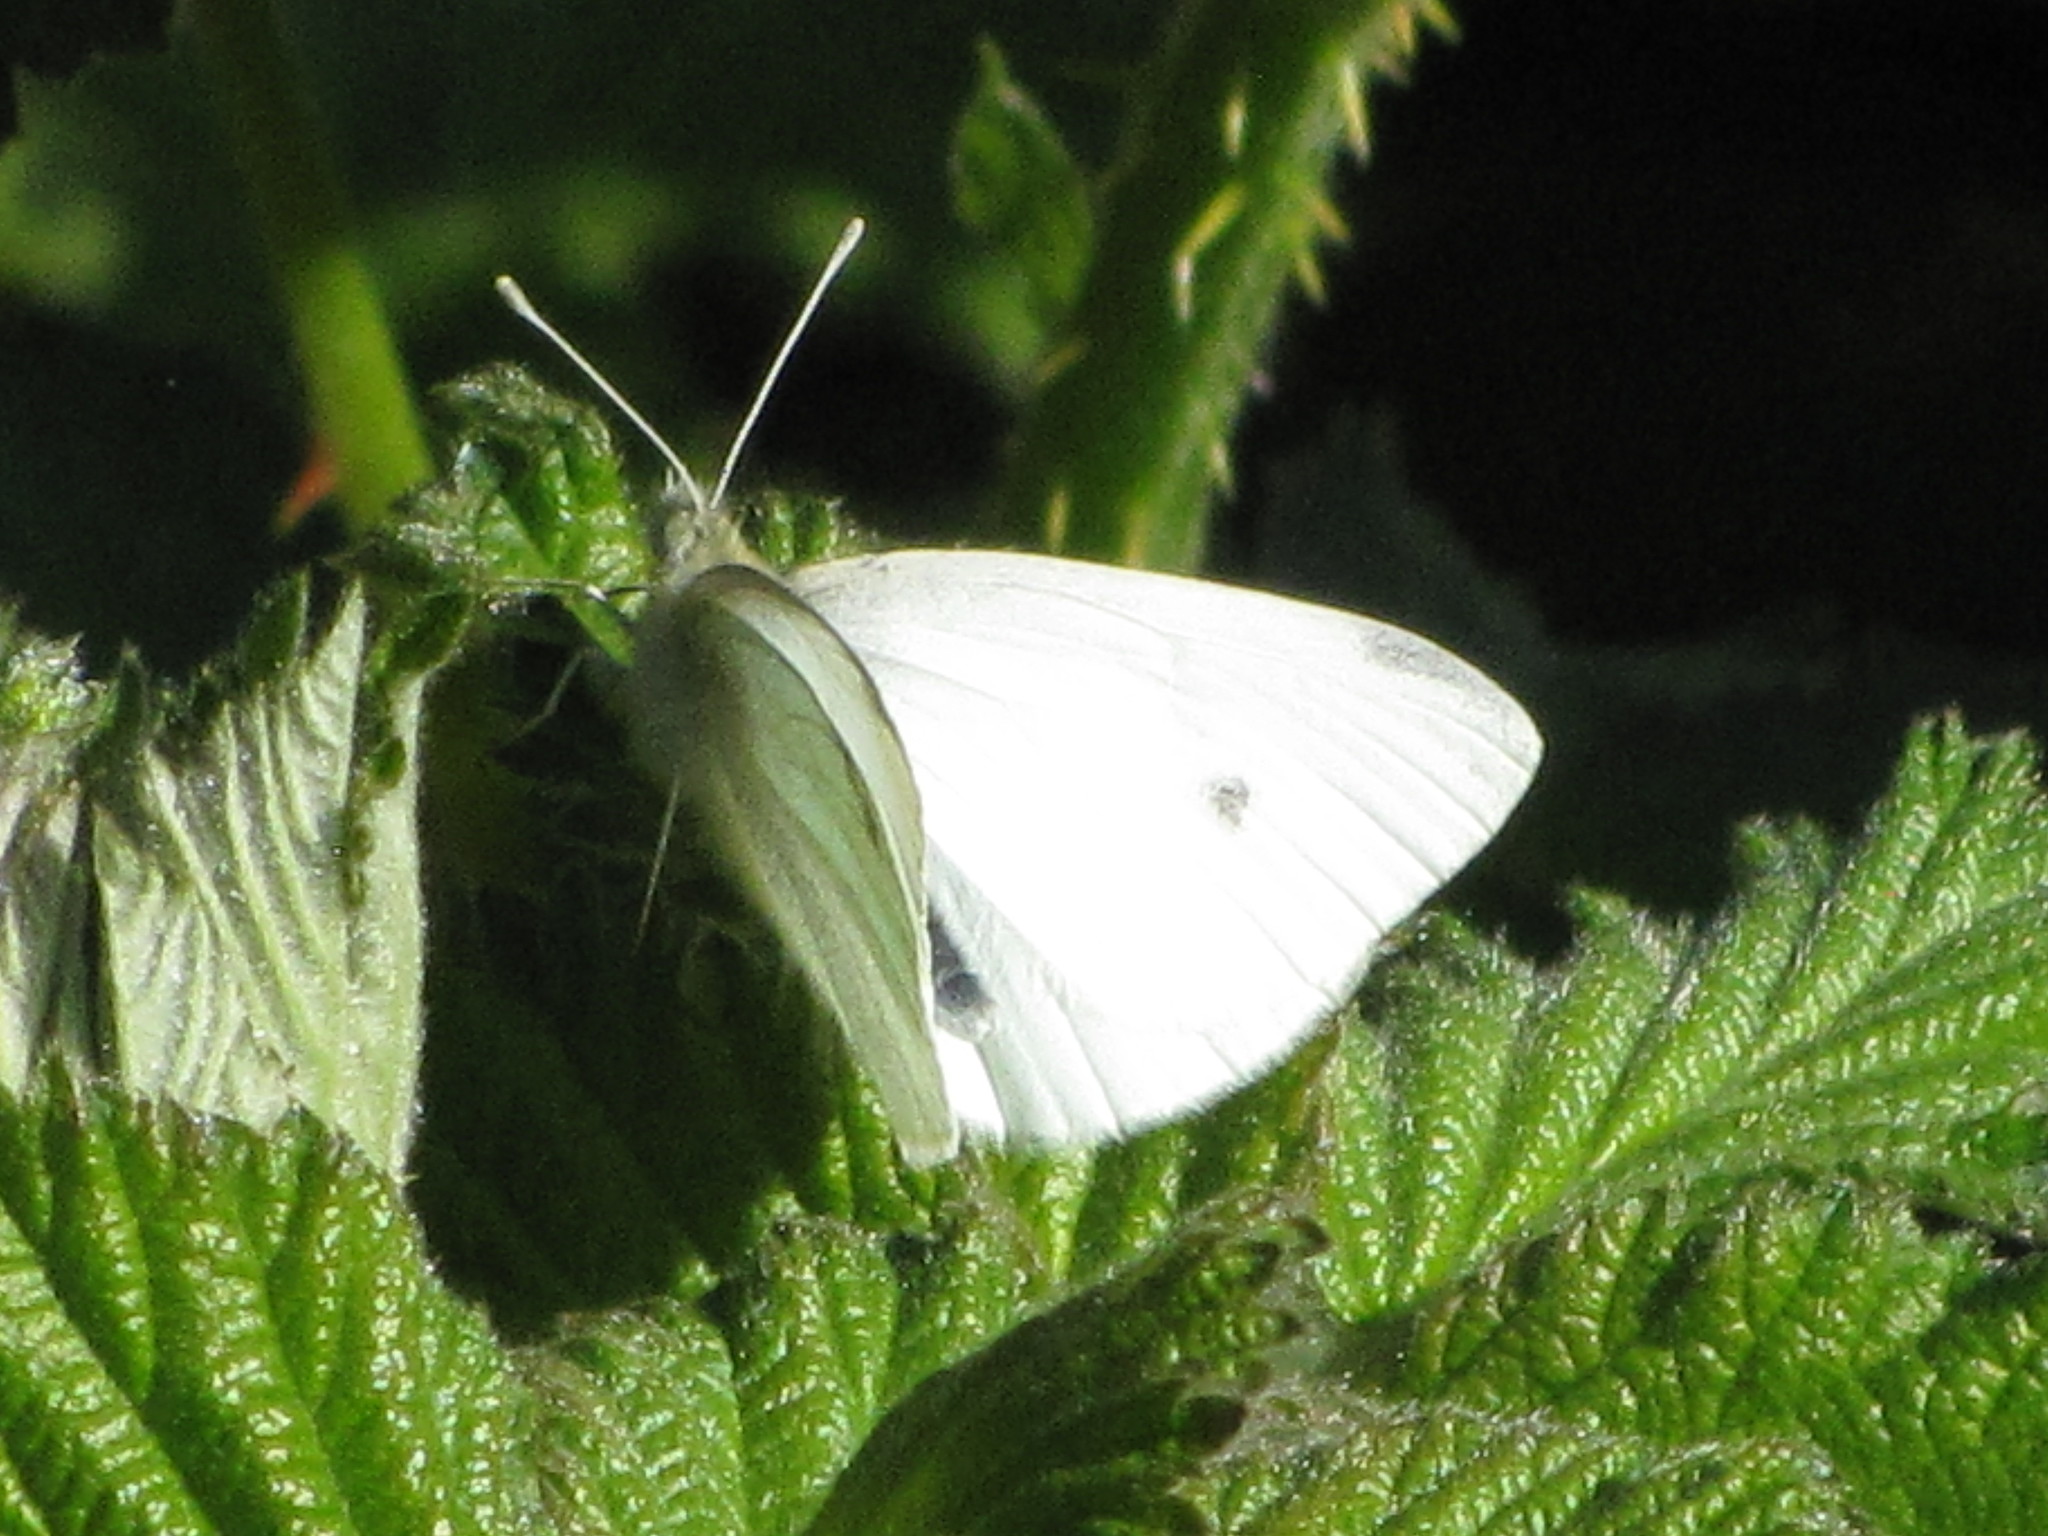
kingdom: Animalia
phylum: Arthropoda
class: Insecta
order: Lepidoptera
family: Pieridae
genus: Pieris
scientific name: Pieris rapae
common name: Small white
